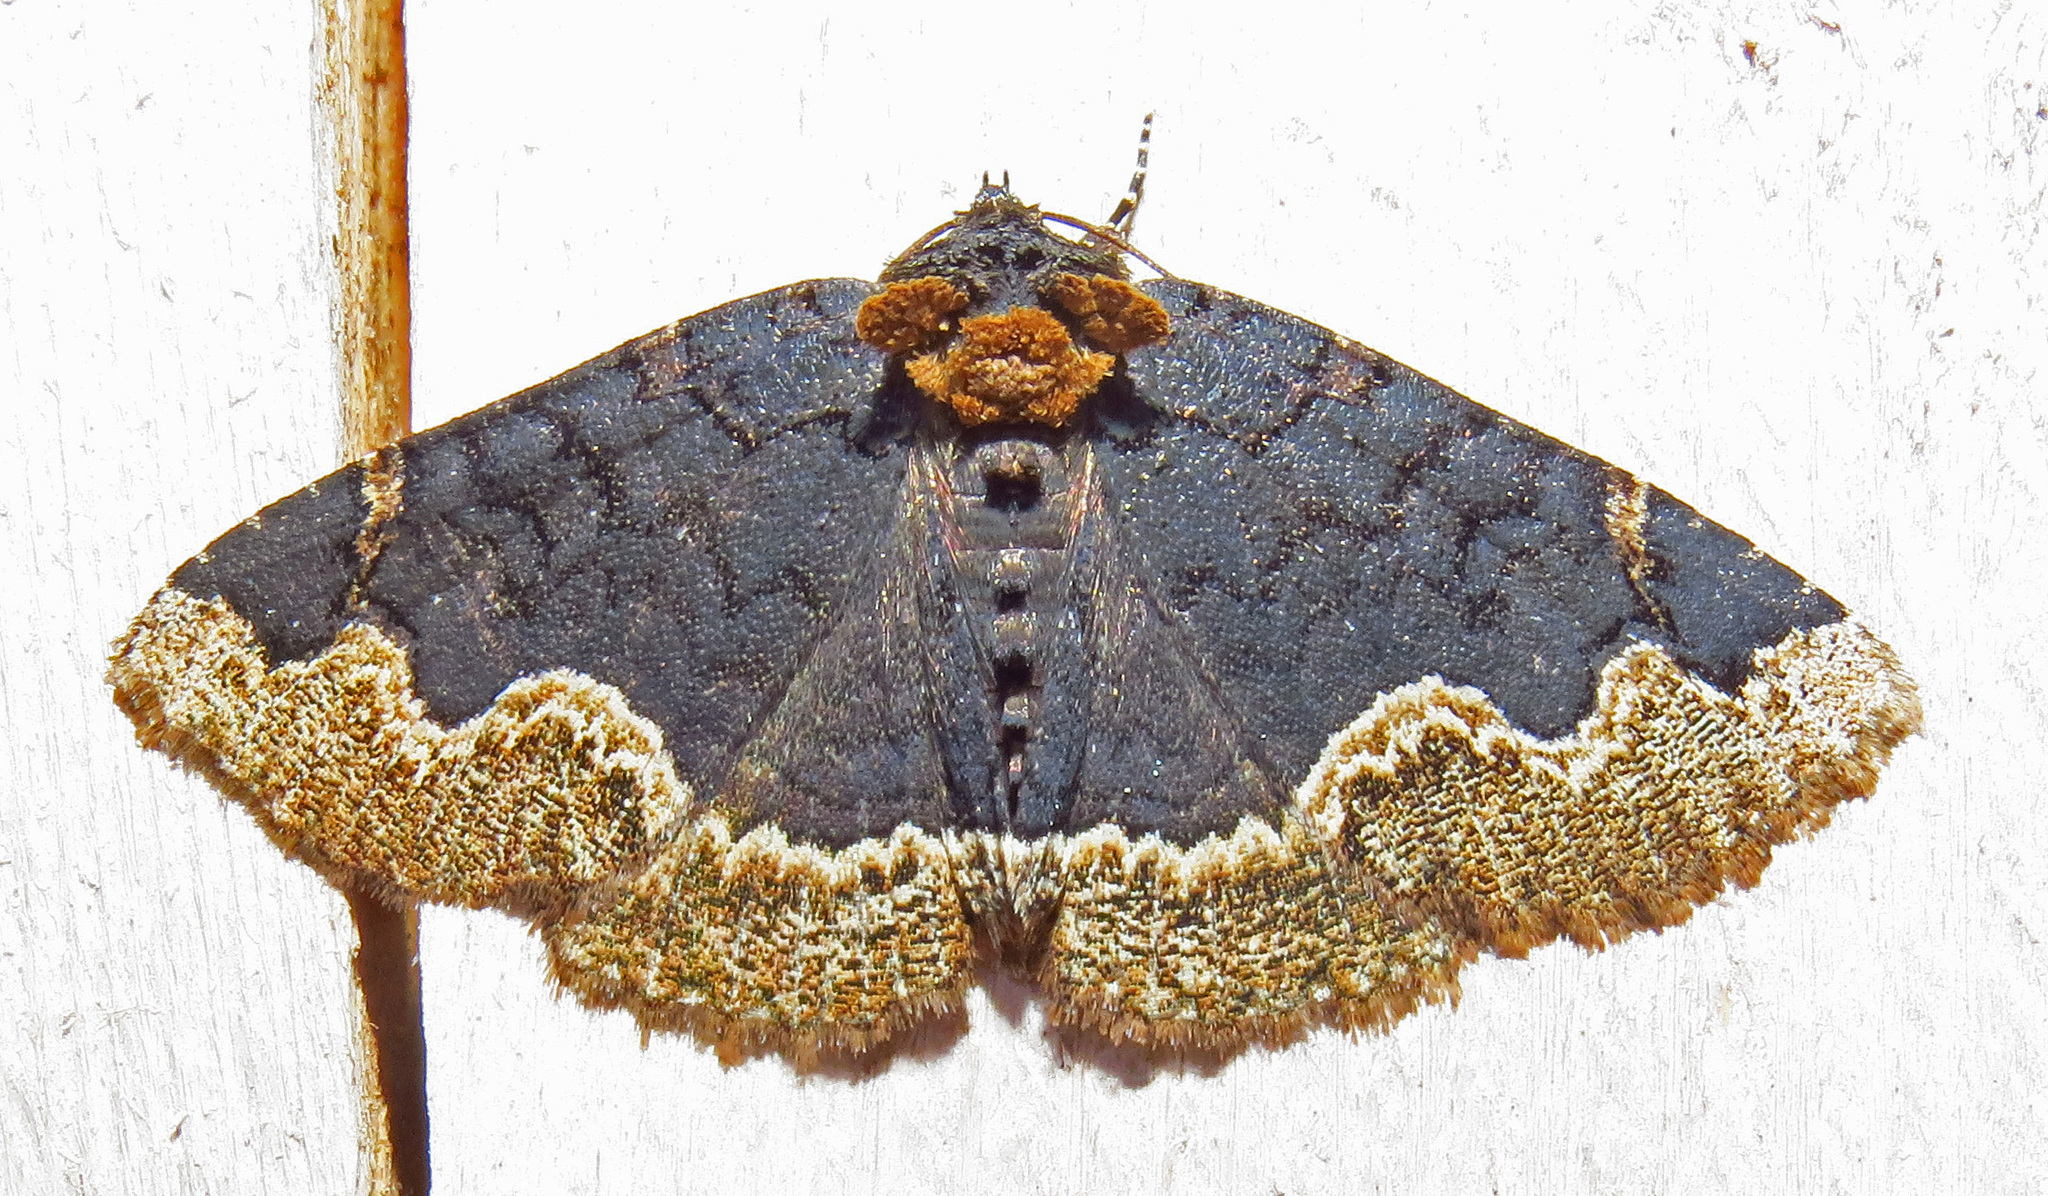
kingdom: Animalia
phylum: Arthropoda
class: Insecta
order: Lepidoptera
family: Erebidae
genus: Zale
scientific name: Zale horrida
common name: Horrid zale moth
